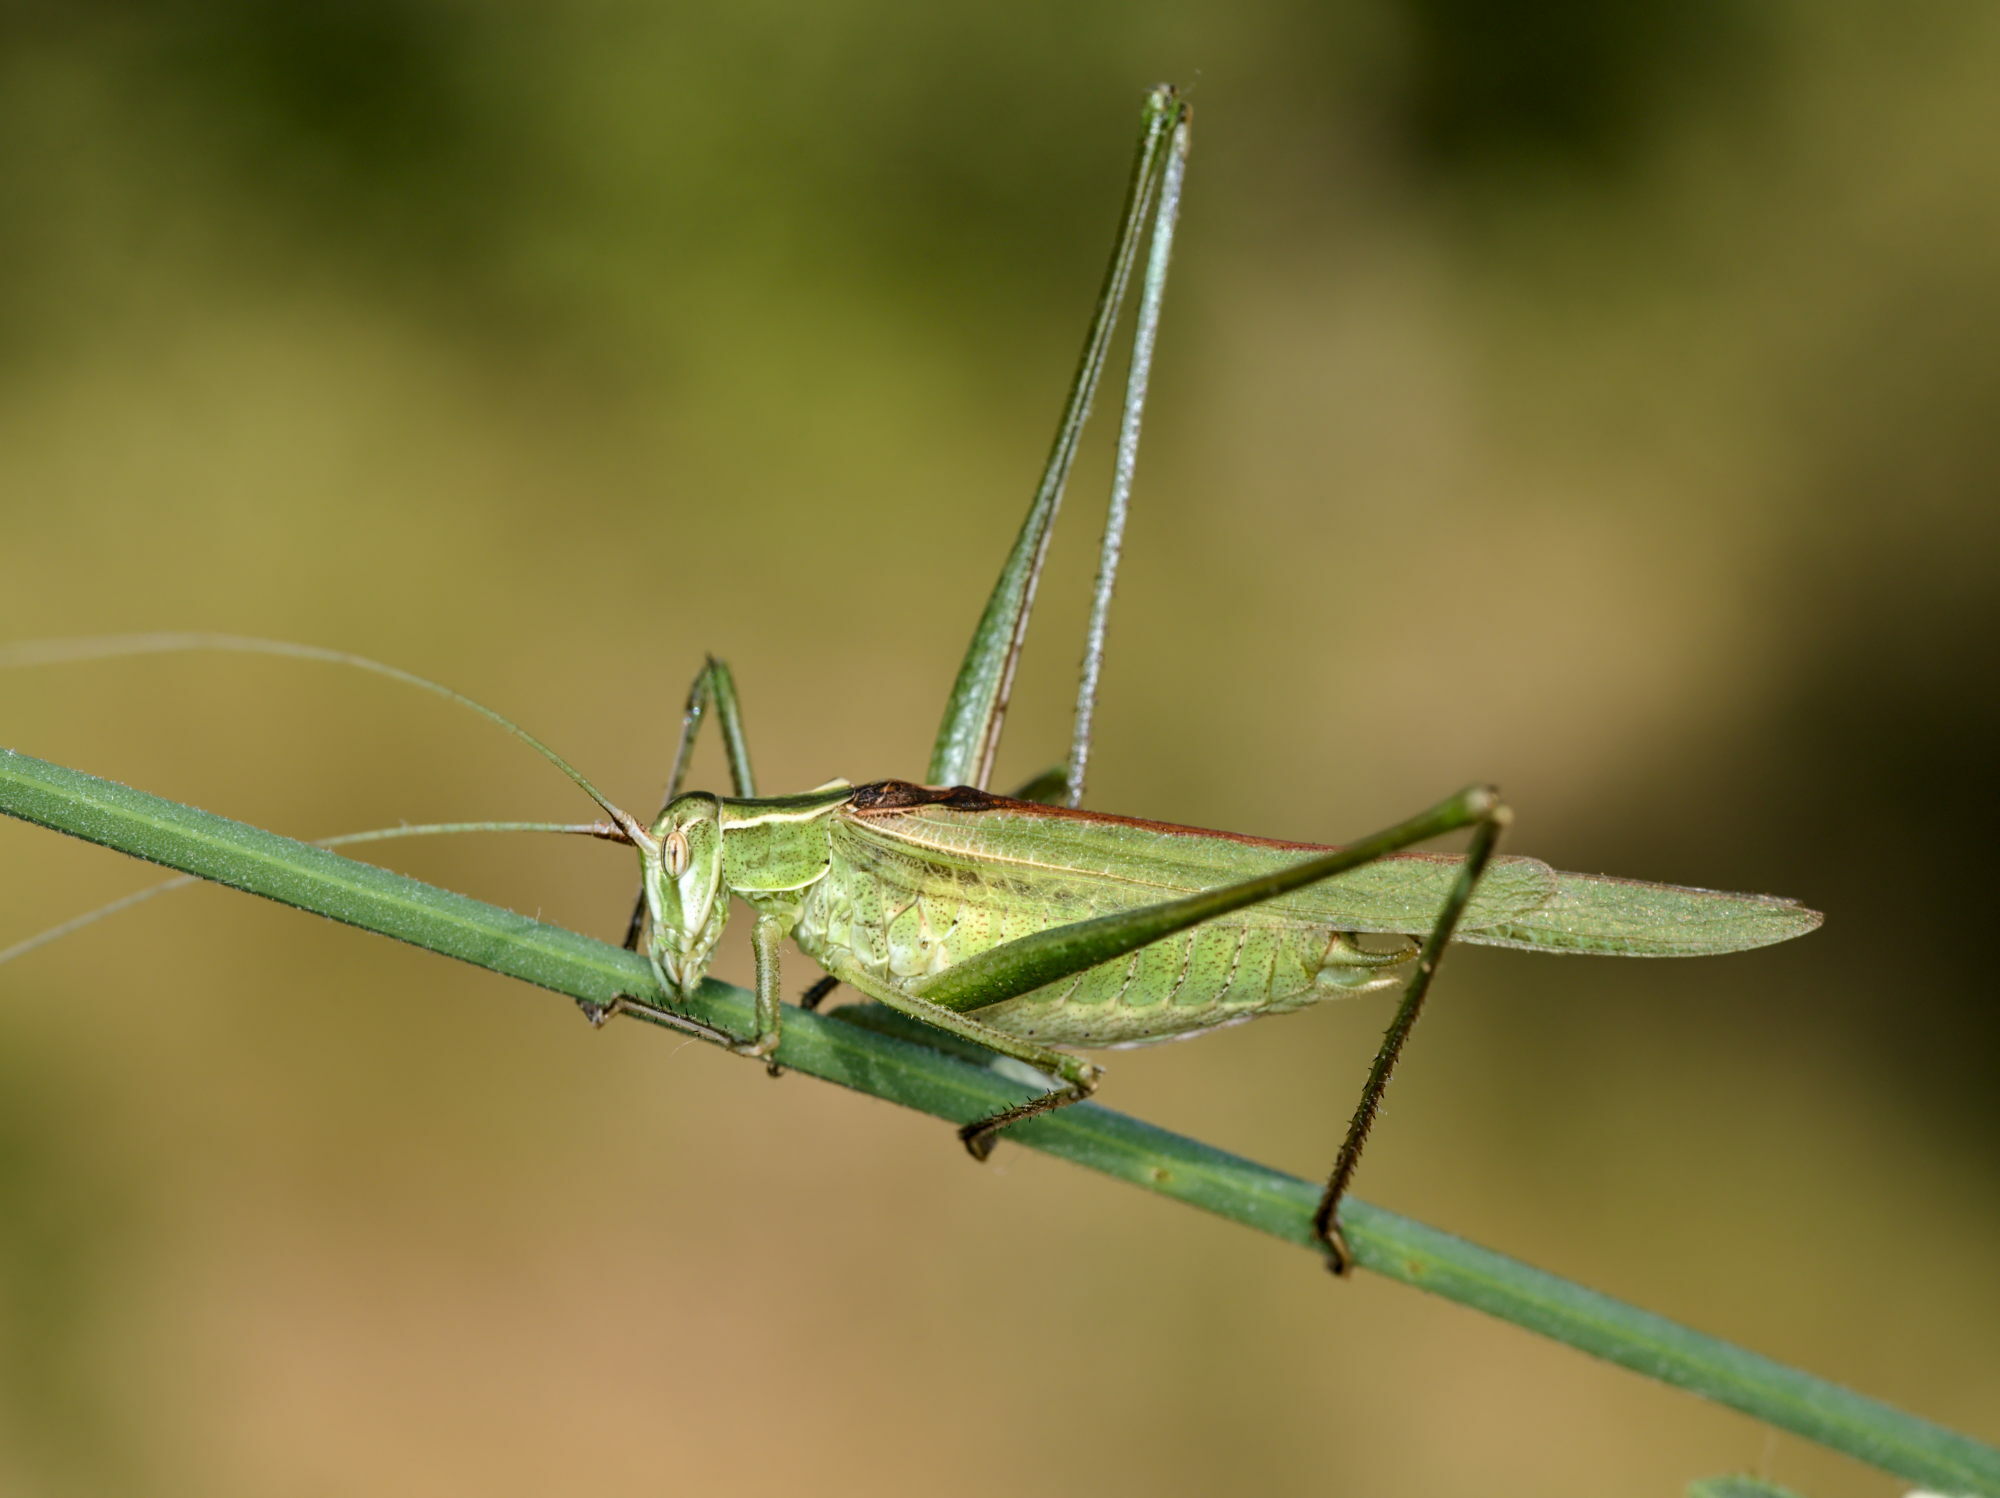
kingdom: Animalia
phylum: Arthropoda
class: Insecta
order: Orthoptera
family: Tettigoniidae
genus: Tylopsis
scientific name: Tylopsis lilifolia
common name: Lily bush-cricket
